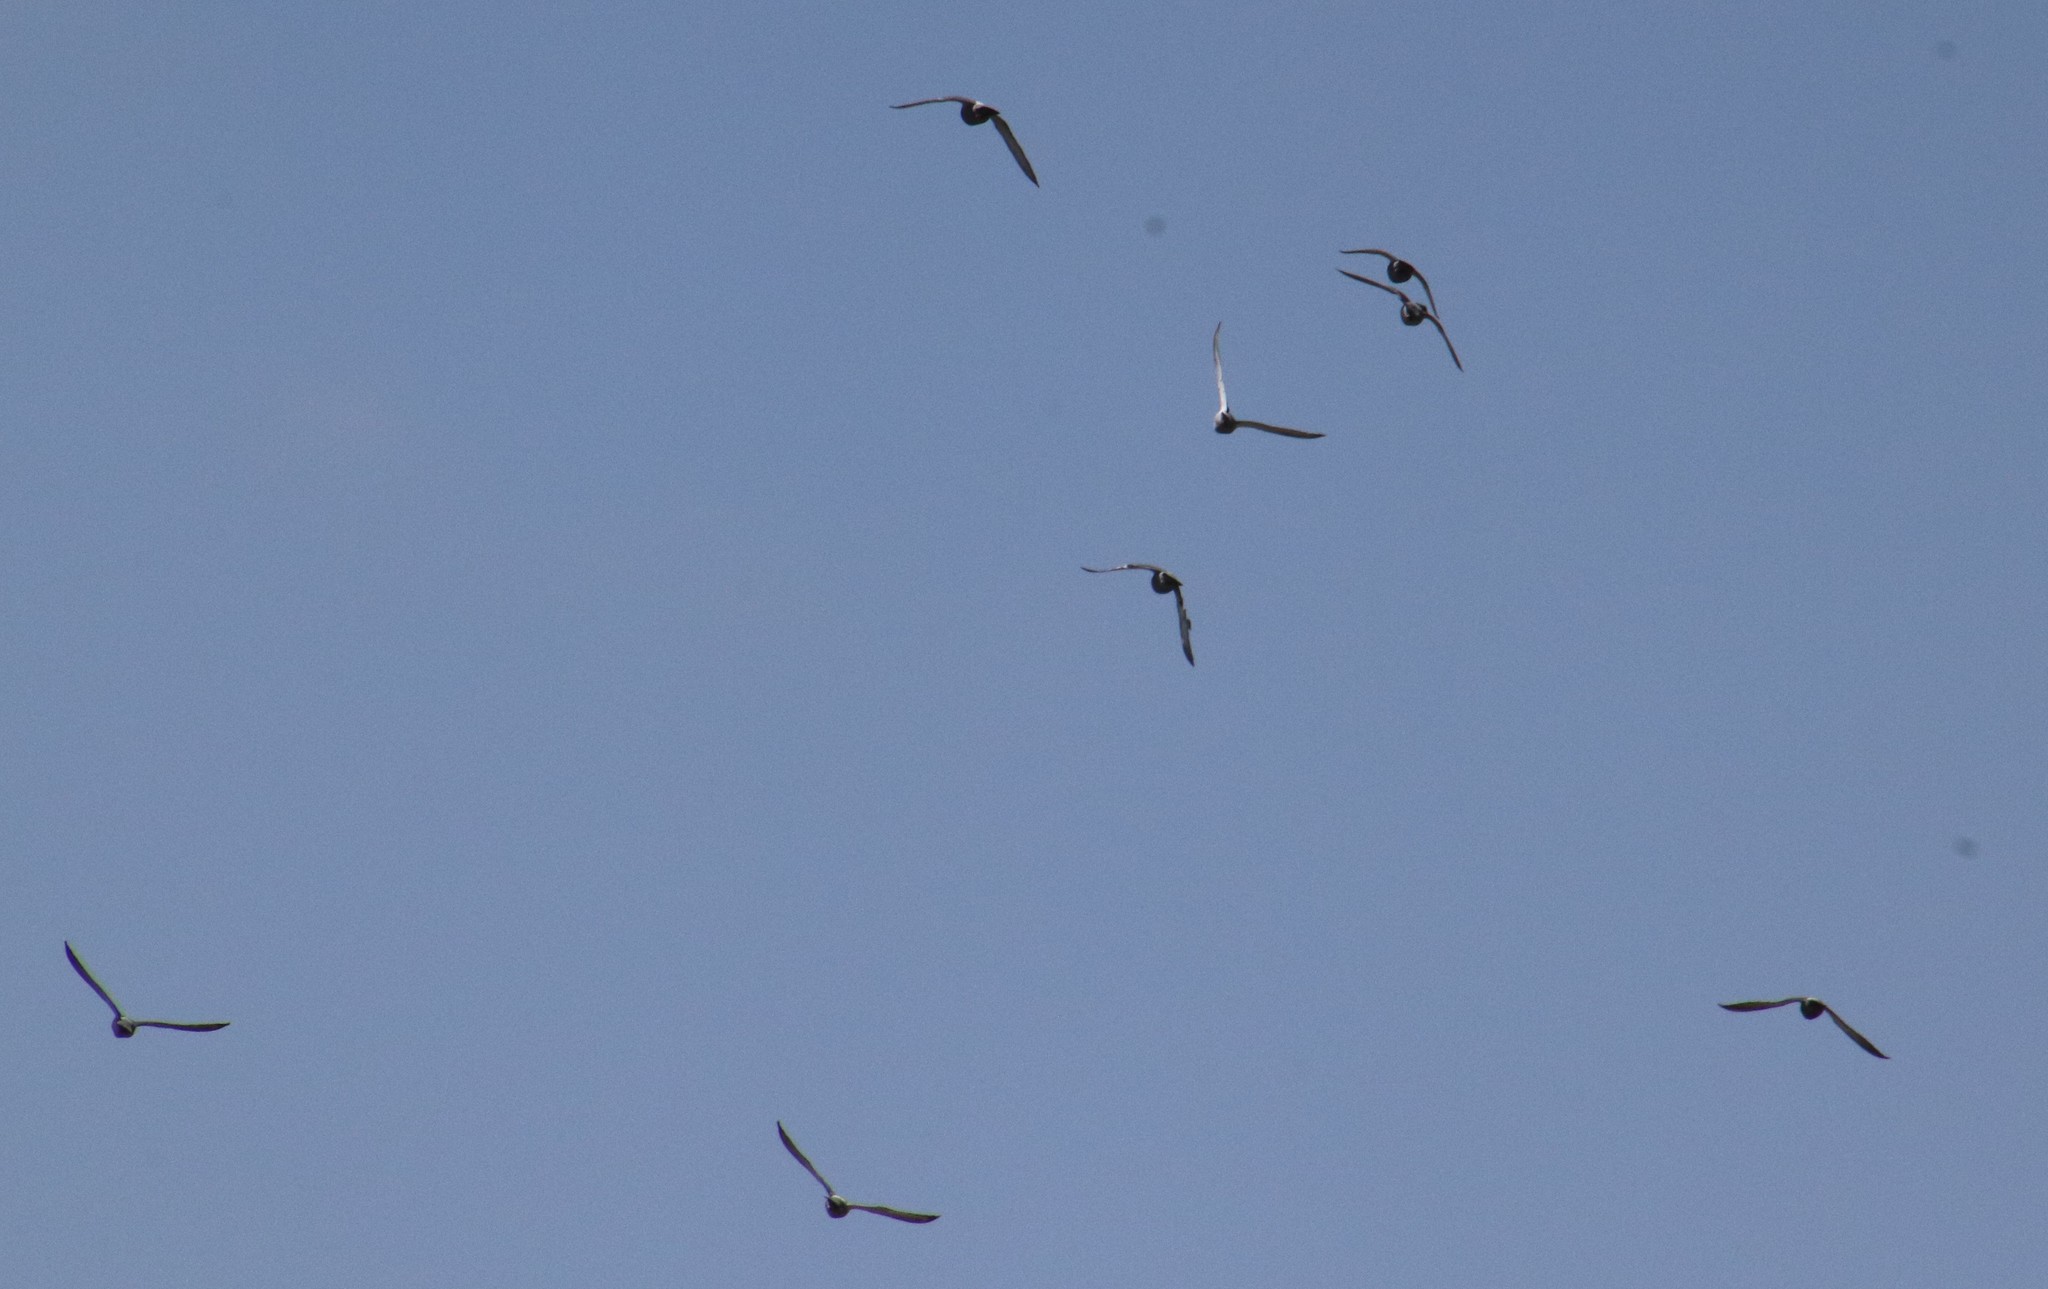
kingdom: Animalia
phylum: Chordata
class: Aves
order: Columbiformes
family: Columbidae
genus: Columba
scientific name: Columba livia
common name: Rock pigeon
